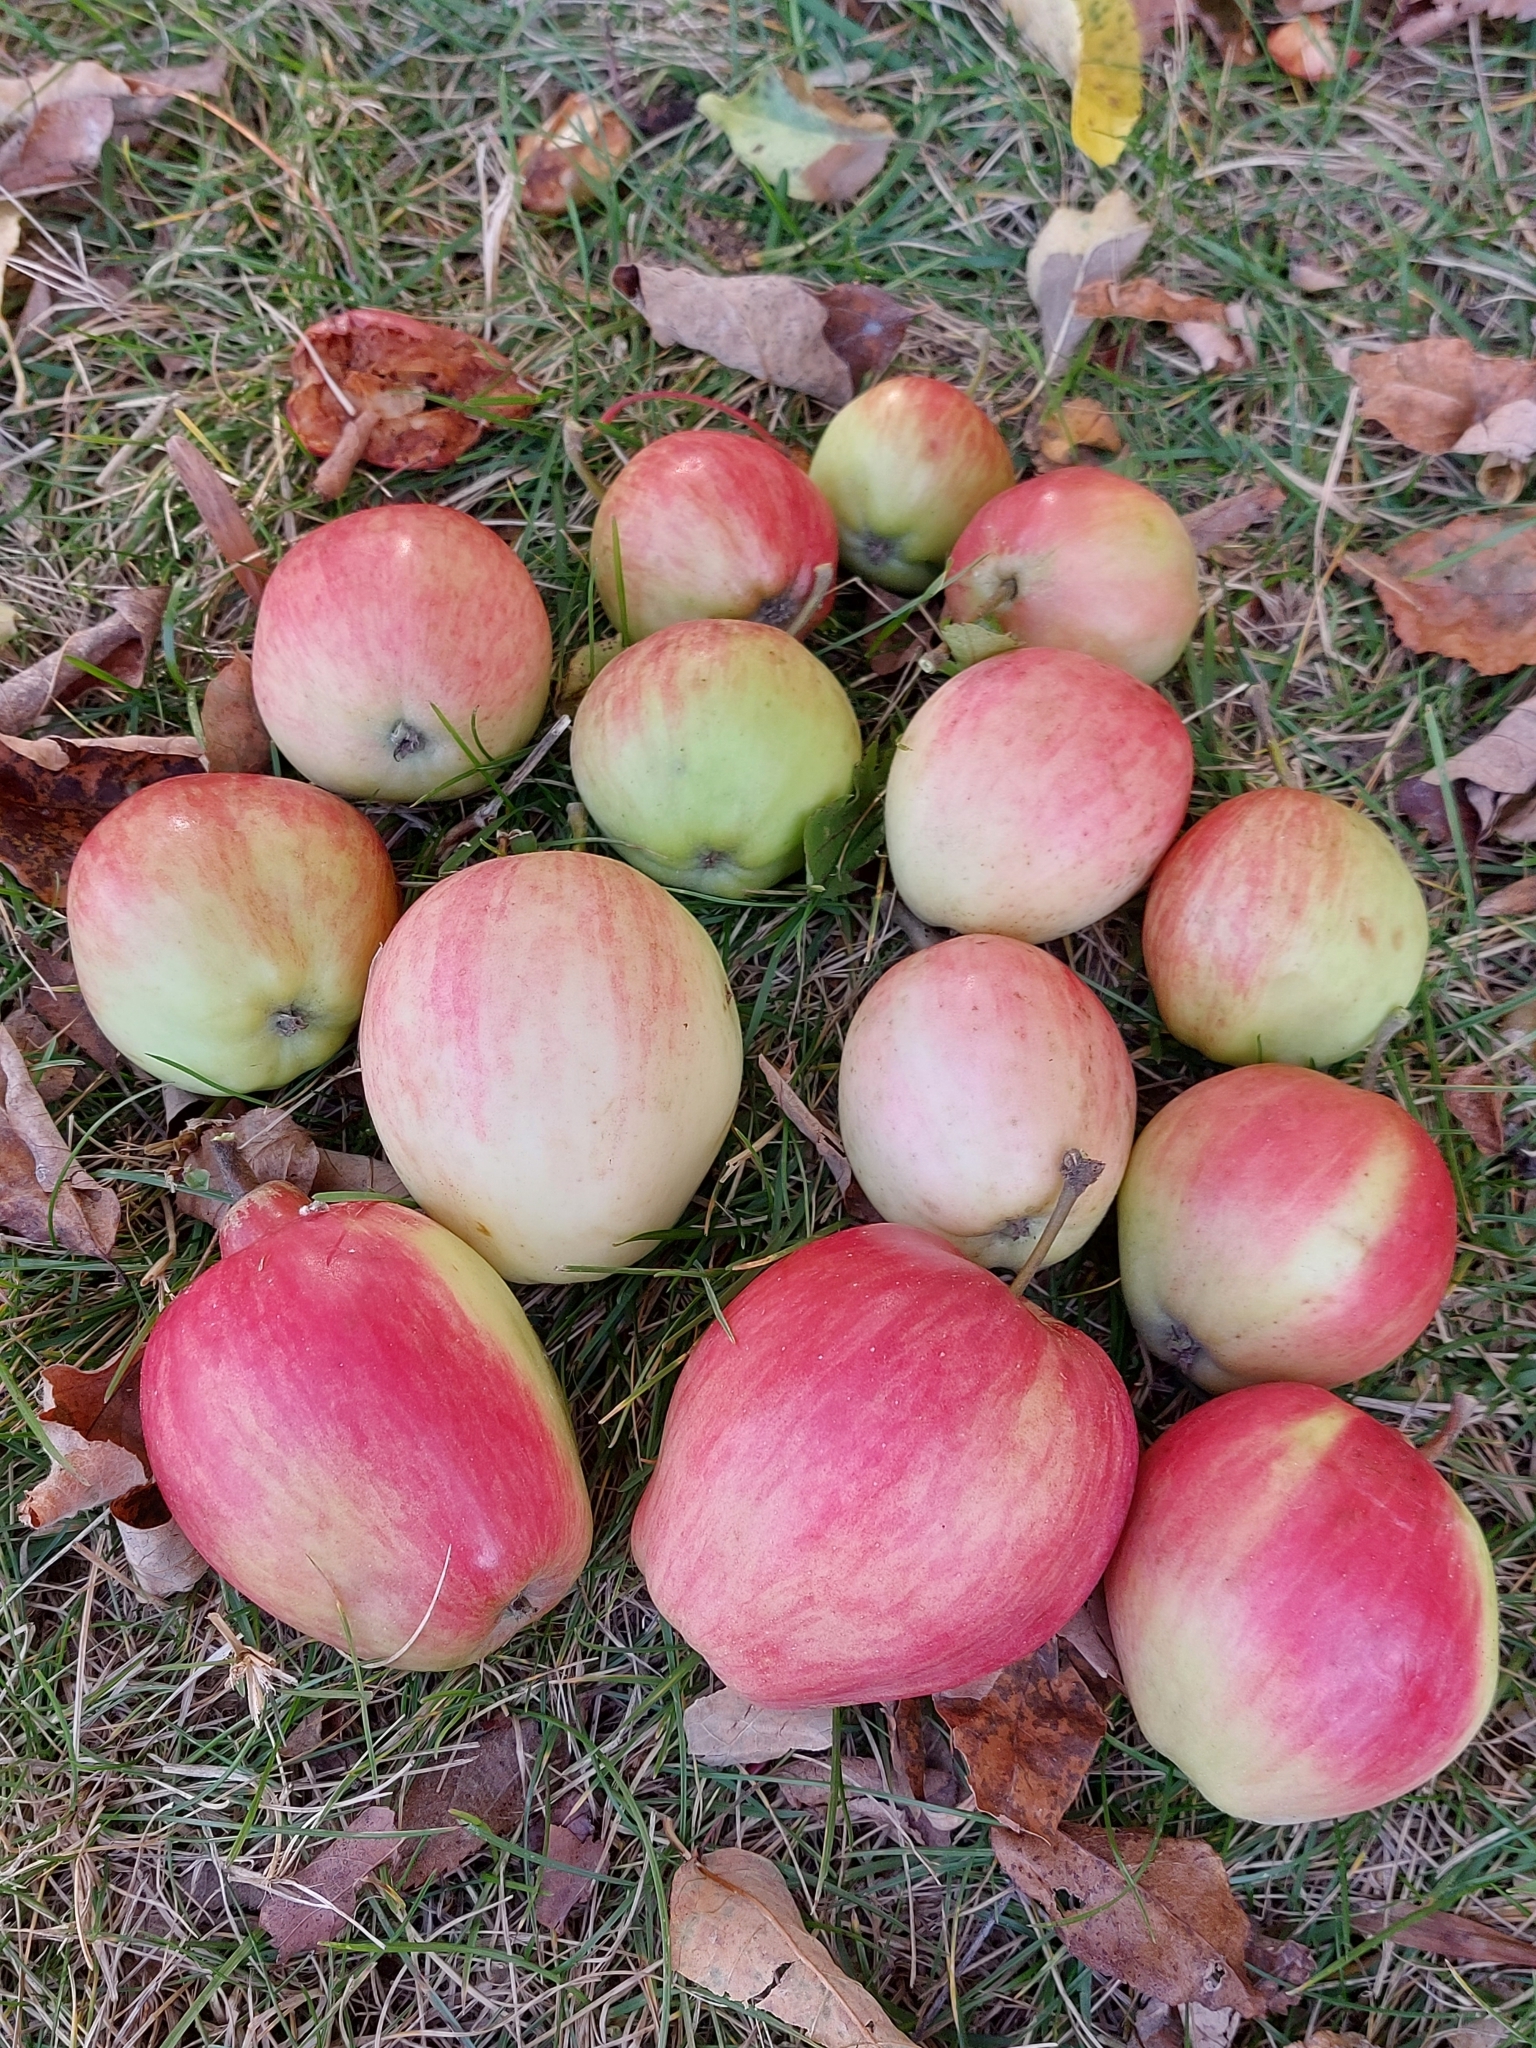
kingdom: Plantae
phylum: Tracheophyta
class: Magnoliopsida
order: Rosales
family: Rosaceae
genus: Malus
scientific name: Malus domestica
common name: Apple
